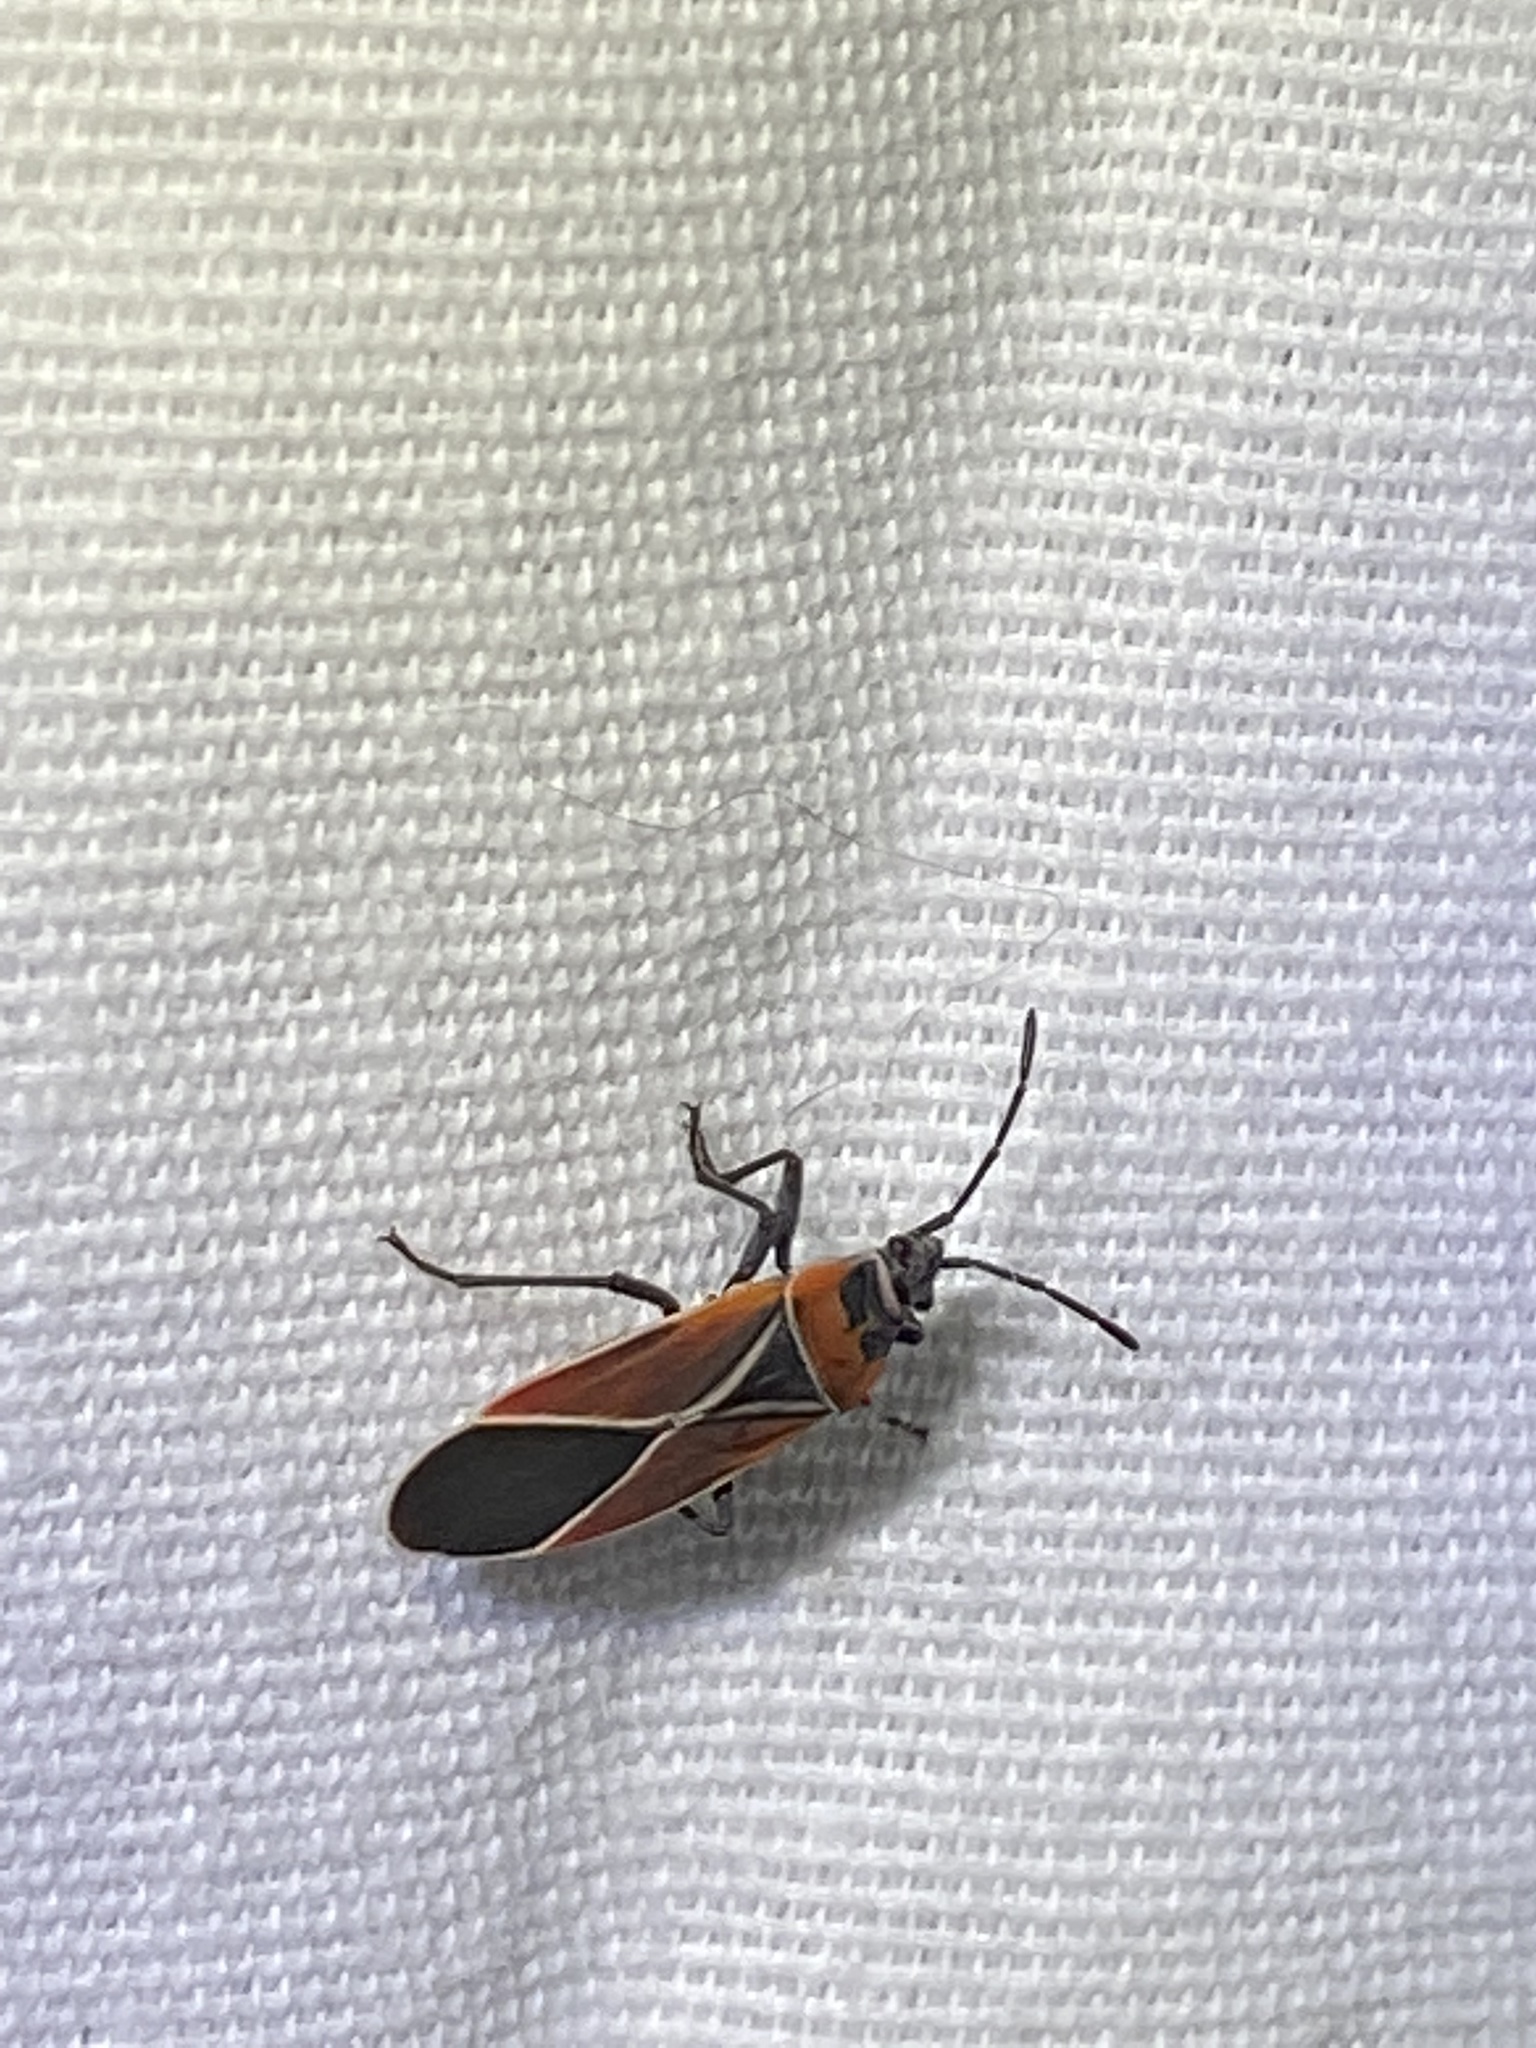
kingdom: Animalia
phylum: Arthropoda
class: Insecta
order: Hemiptera
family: Lygaeidae
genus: Neacoryphus
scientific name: Neacoryphus bicrucis
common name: Lygaeid bug
